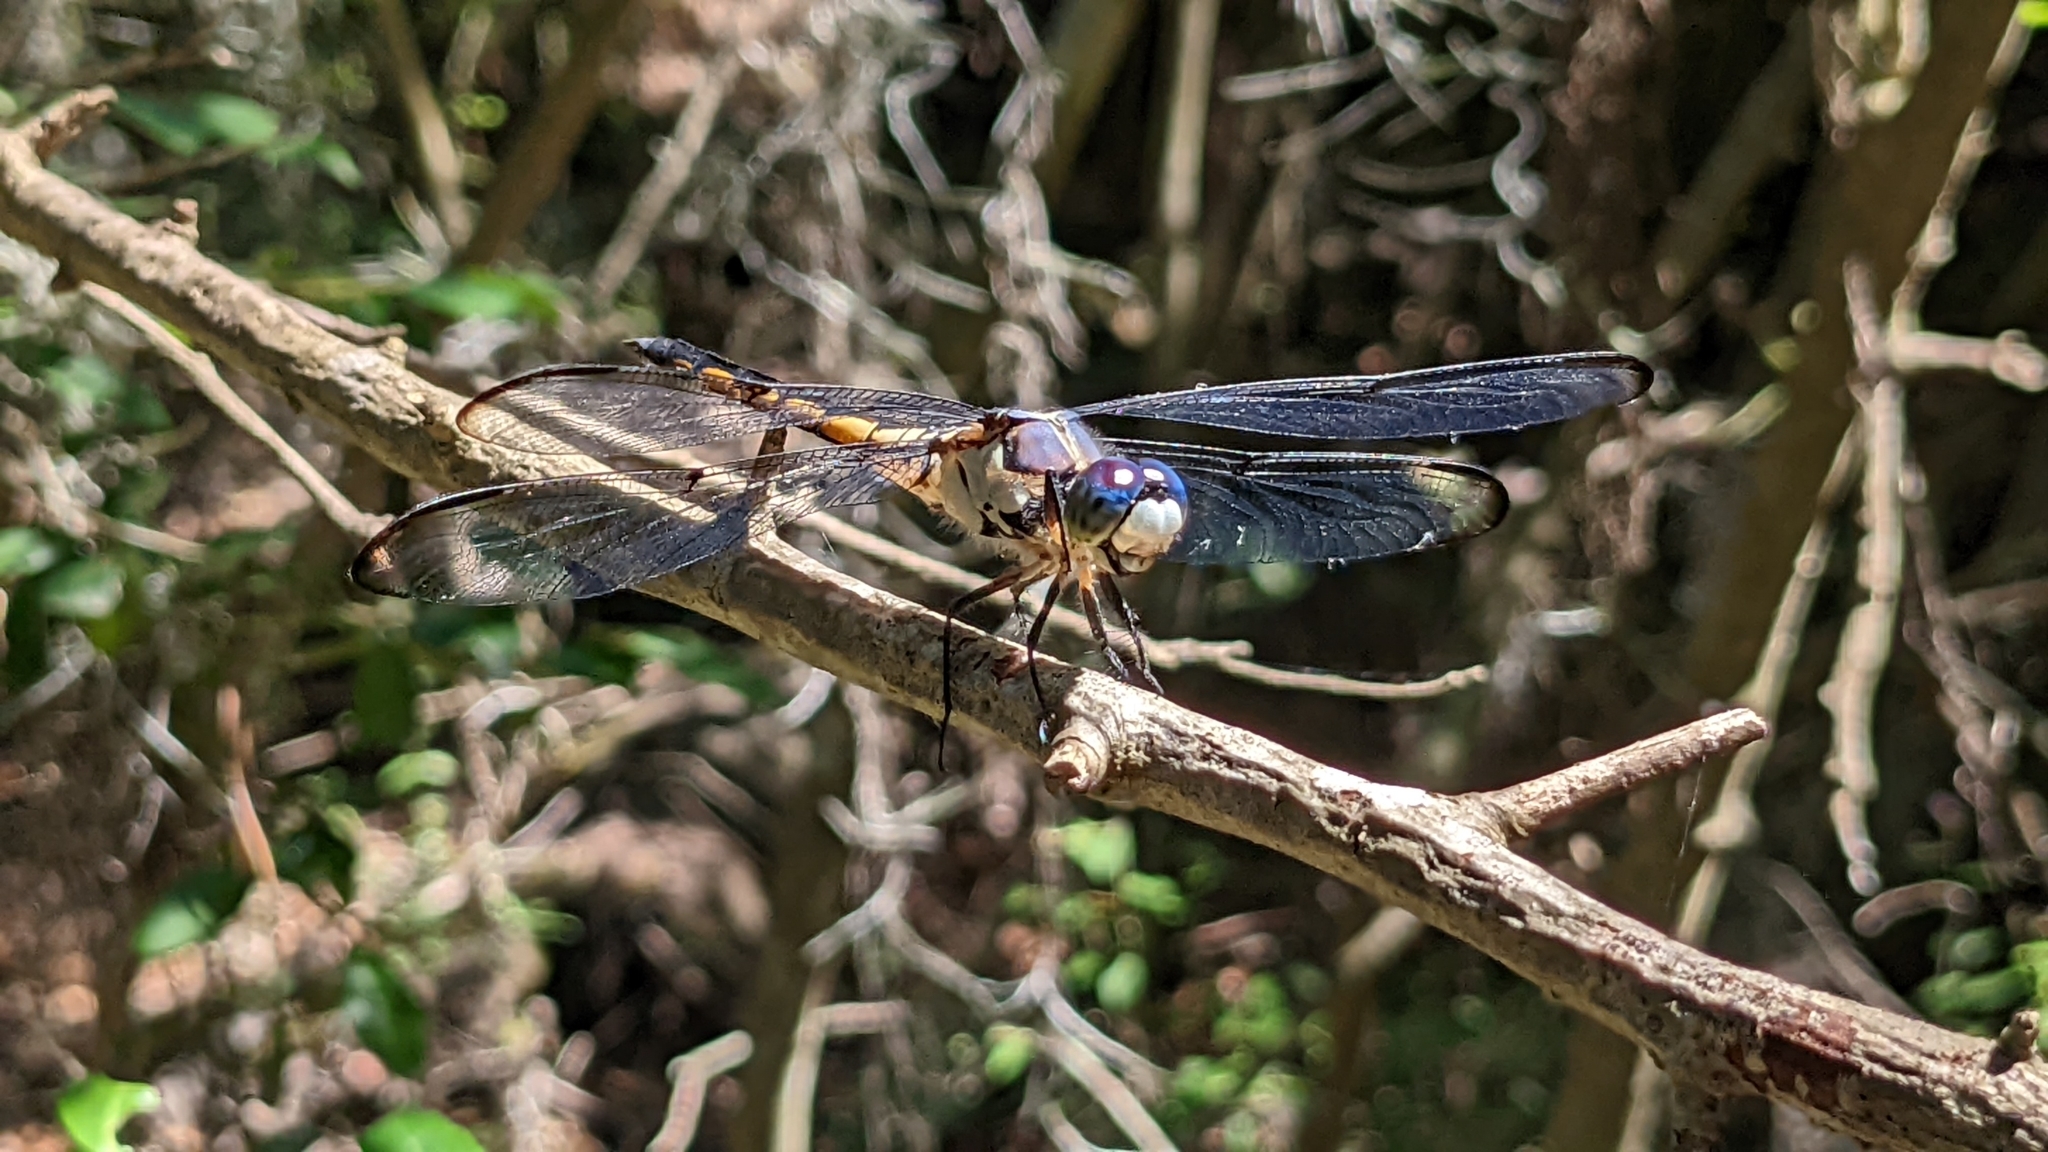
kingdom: Animalia
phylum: Arthropoda
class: Insecta
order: Odonata
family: Libellulidae
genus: Libellula
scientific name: Libellula vibrans
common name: Great blue skimmer
